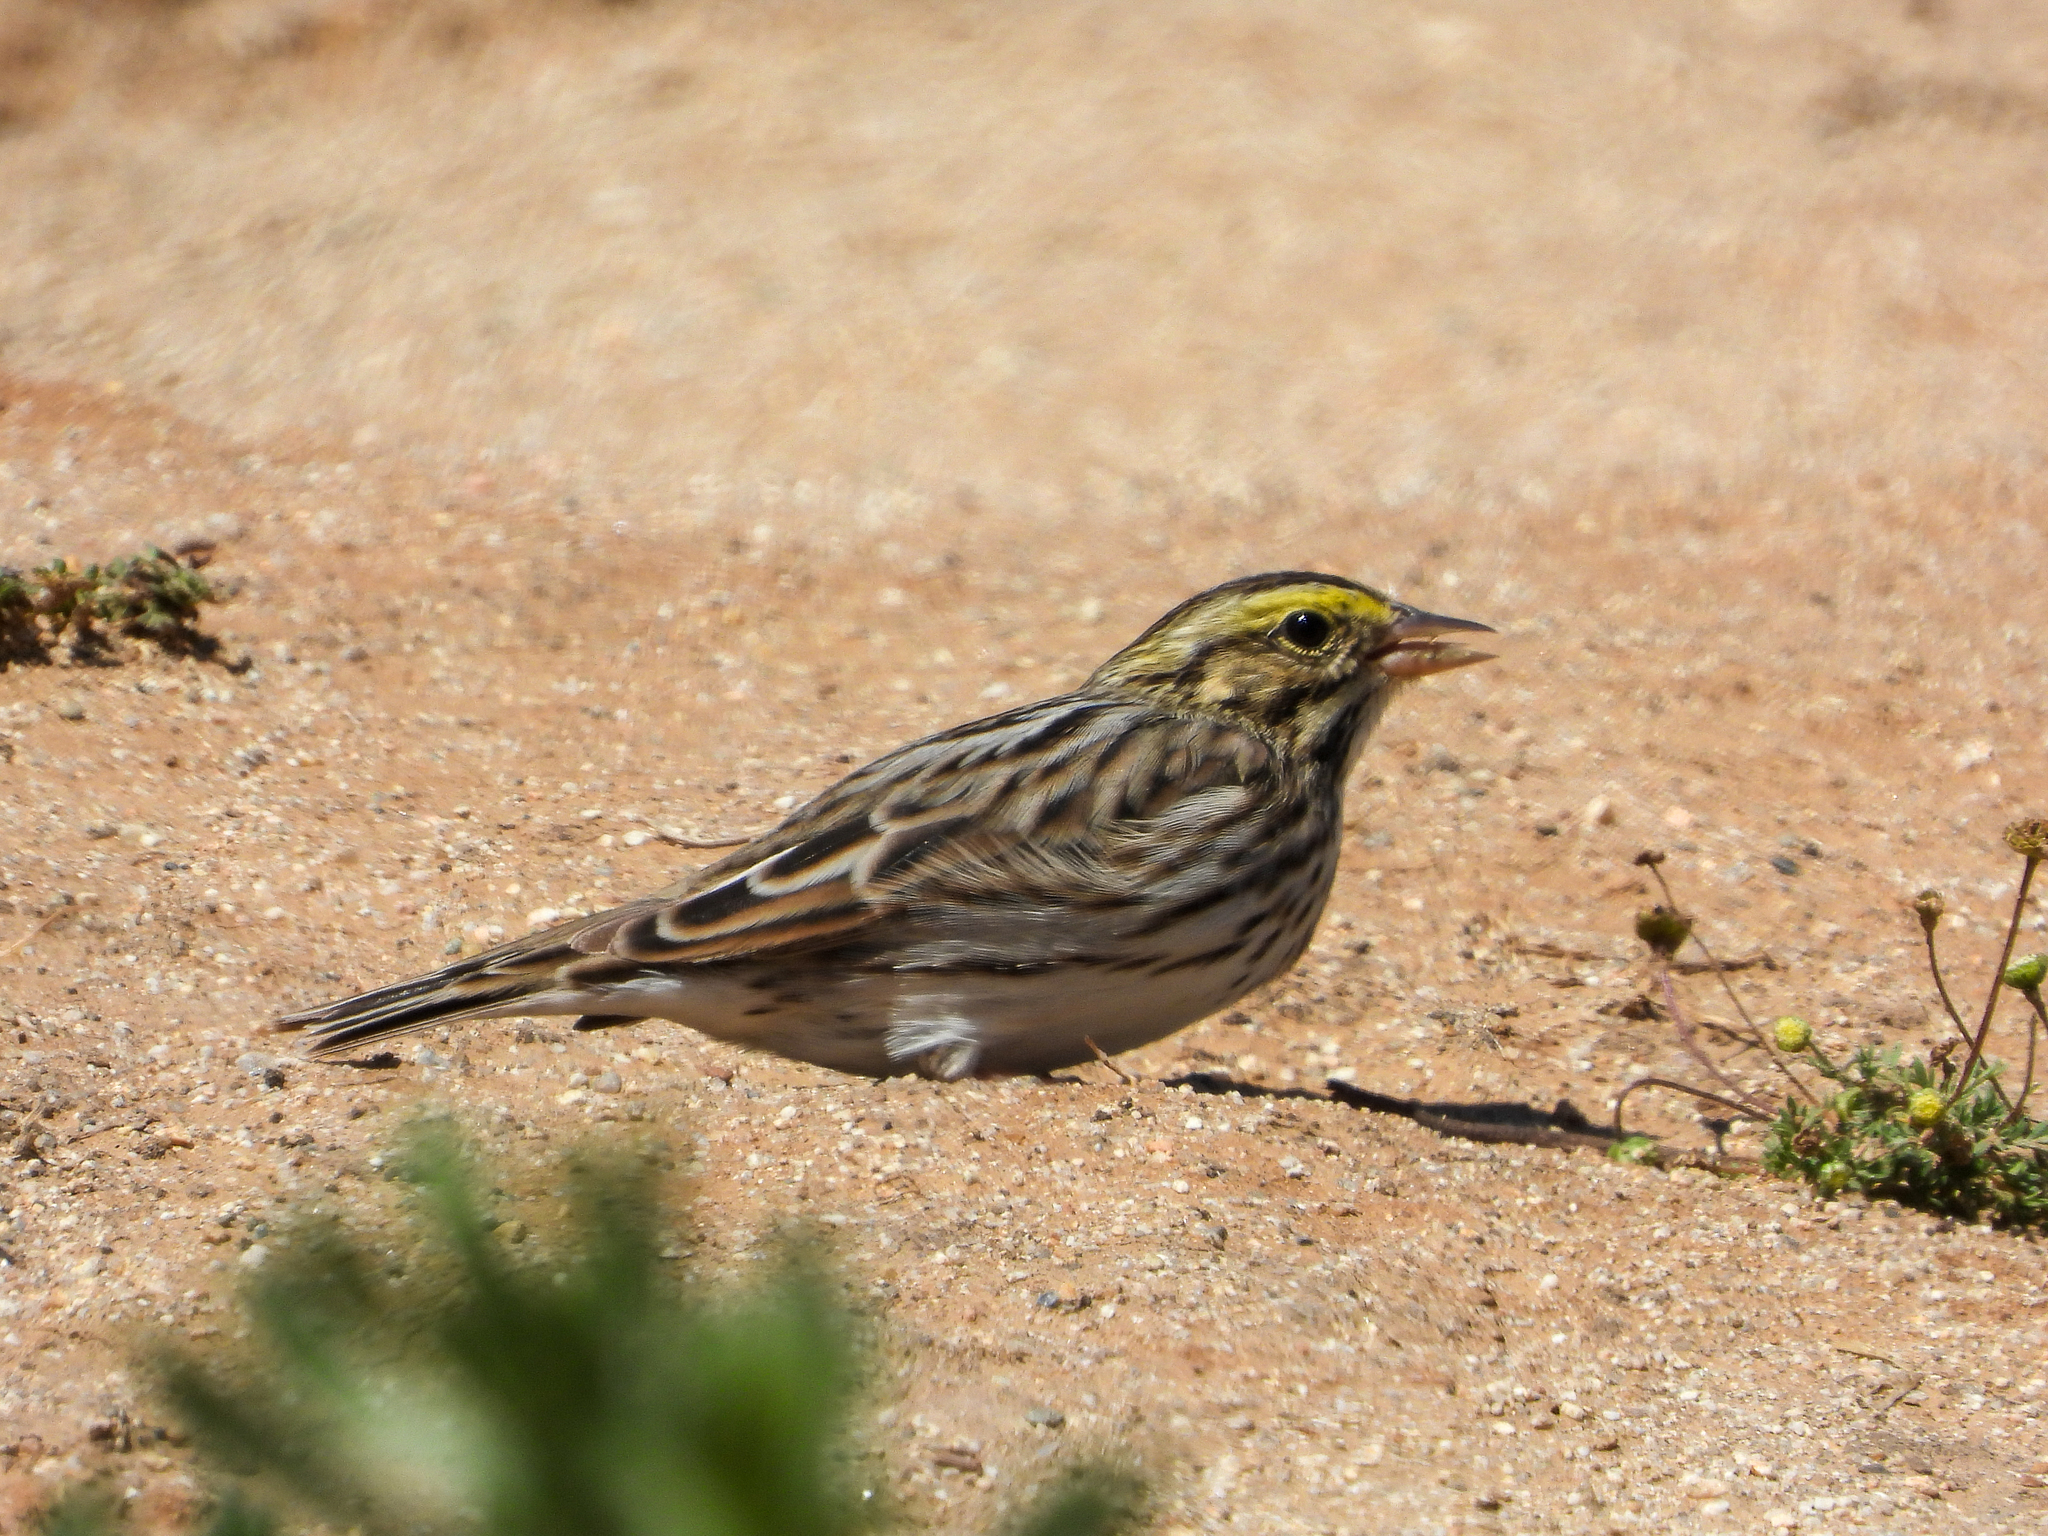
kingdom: Animalia
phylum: Chordata
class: Aves
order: Passeriformes
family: Passerellidae
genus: Passerculus
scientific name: Passerculus sandwichensis
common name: Savannah sparrow
